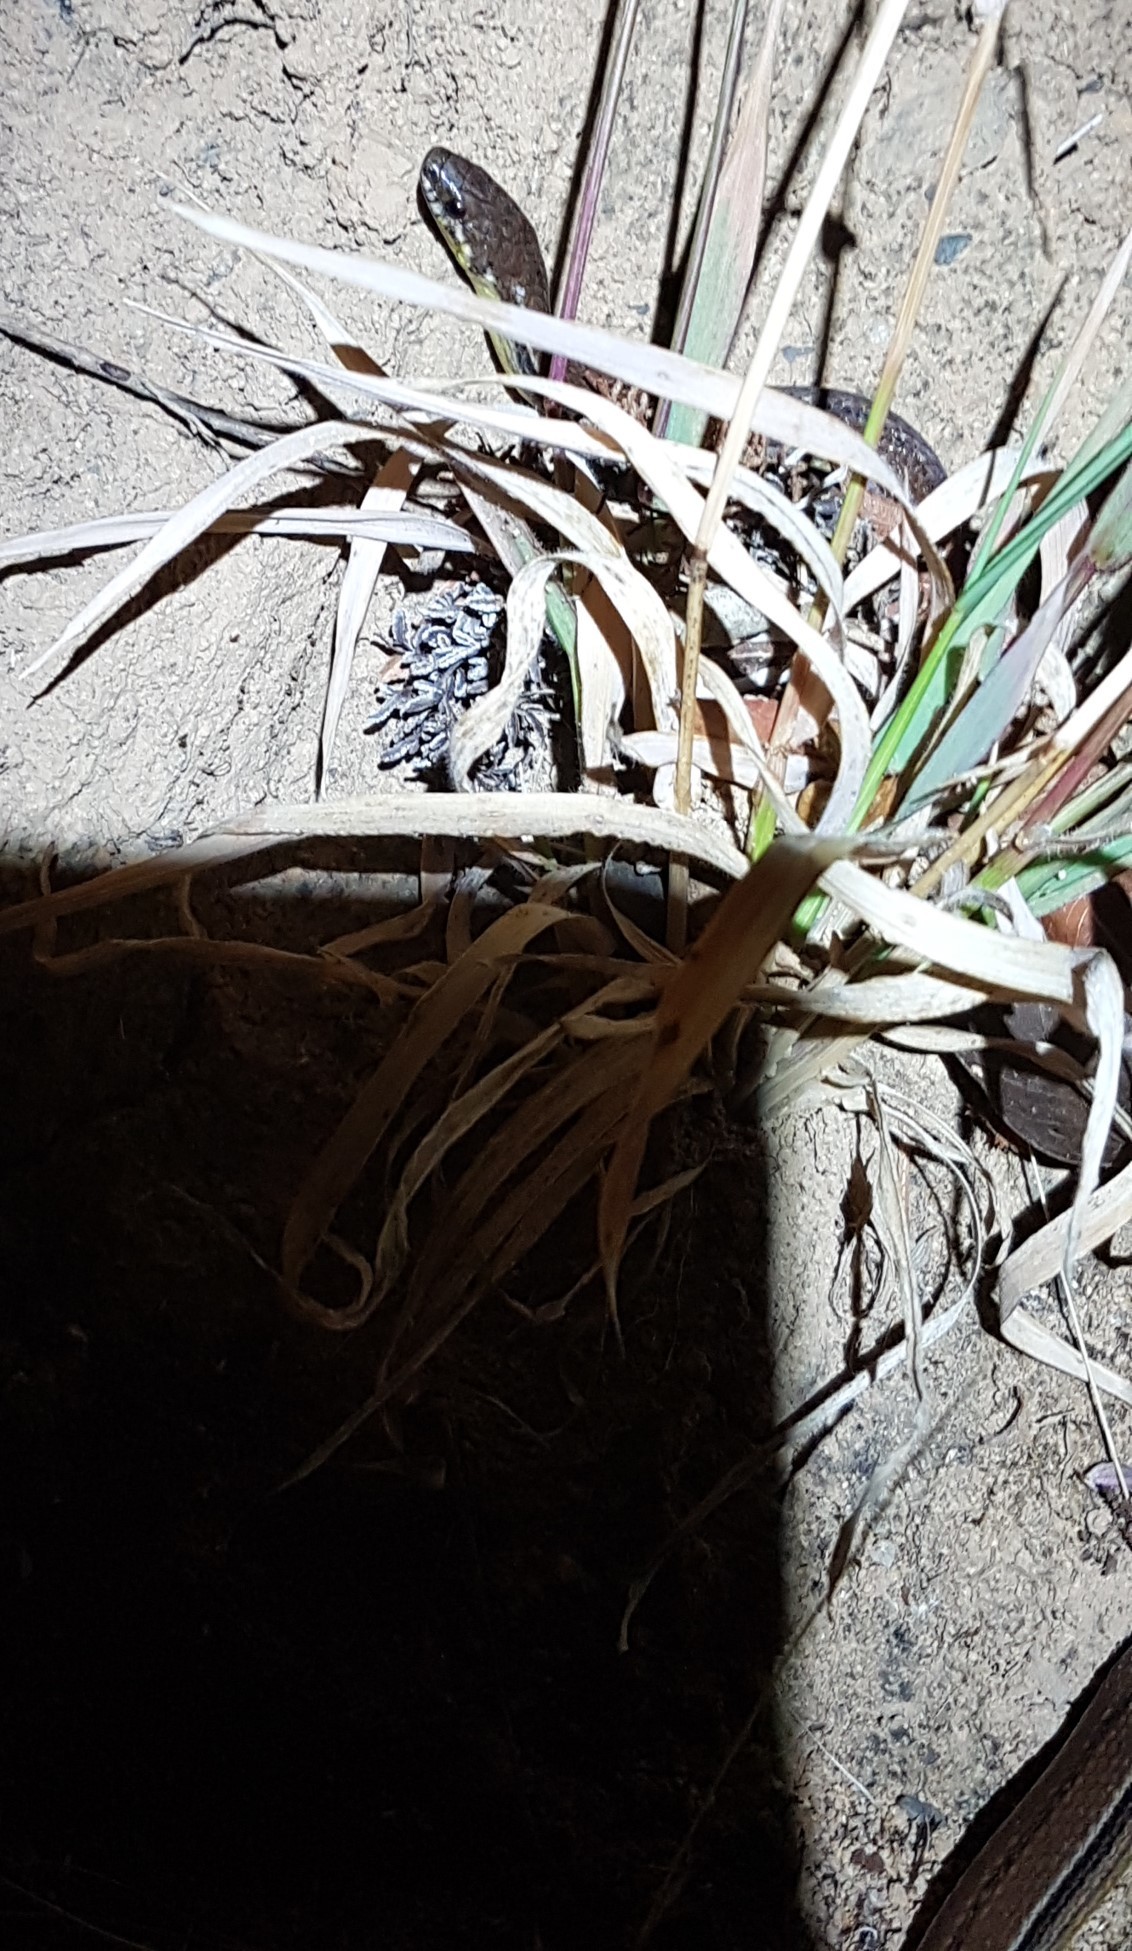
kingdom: Animalia
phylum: Chordata
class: Squamata
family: Colubridae
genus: Rhadinella
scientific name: Rhadinella godmani
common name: Godman's graceful brown snake
